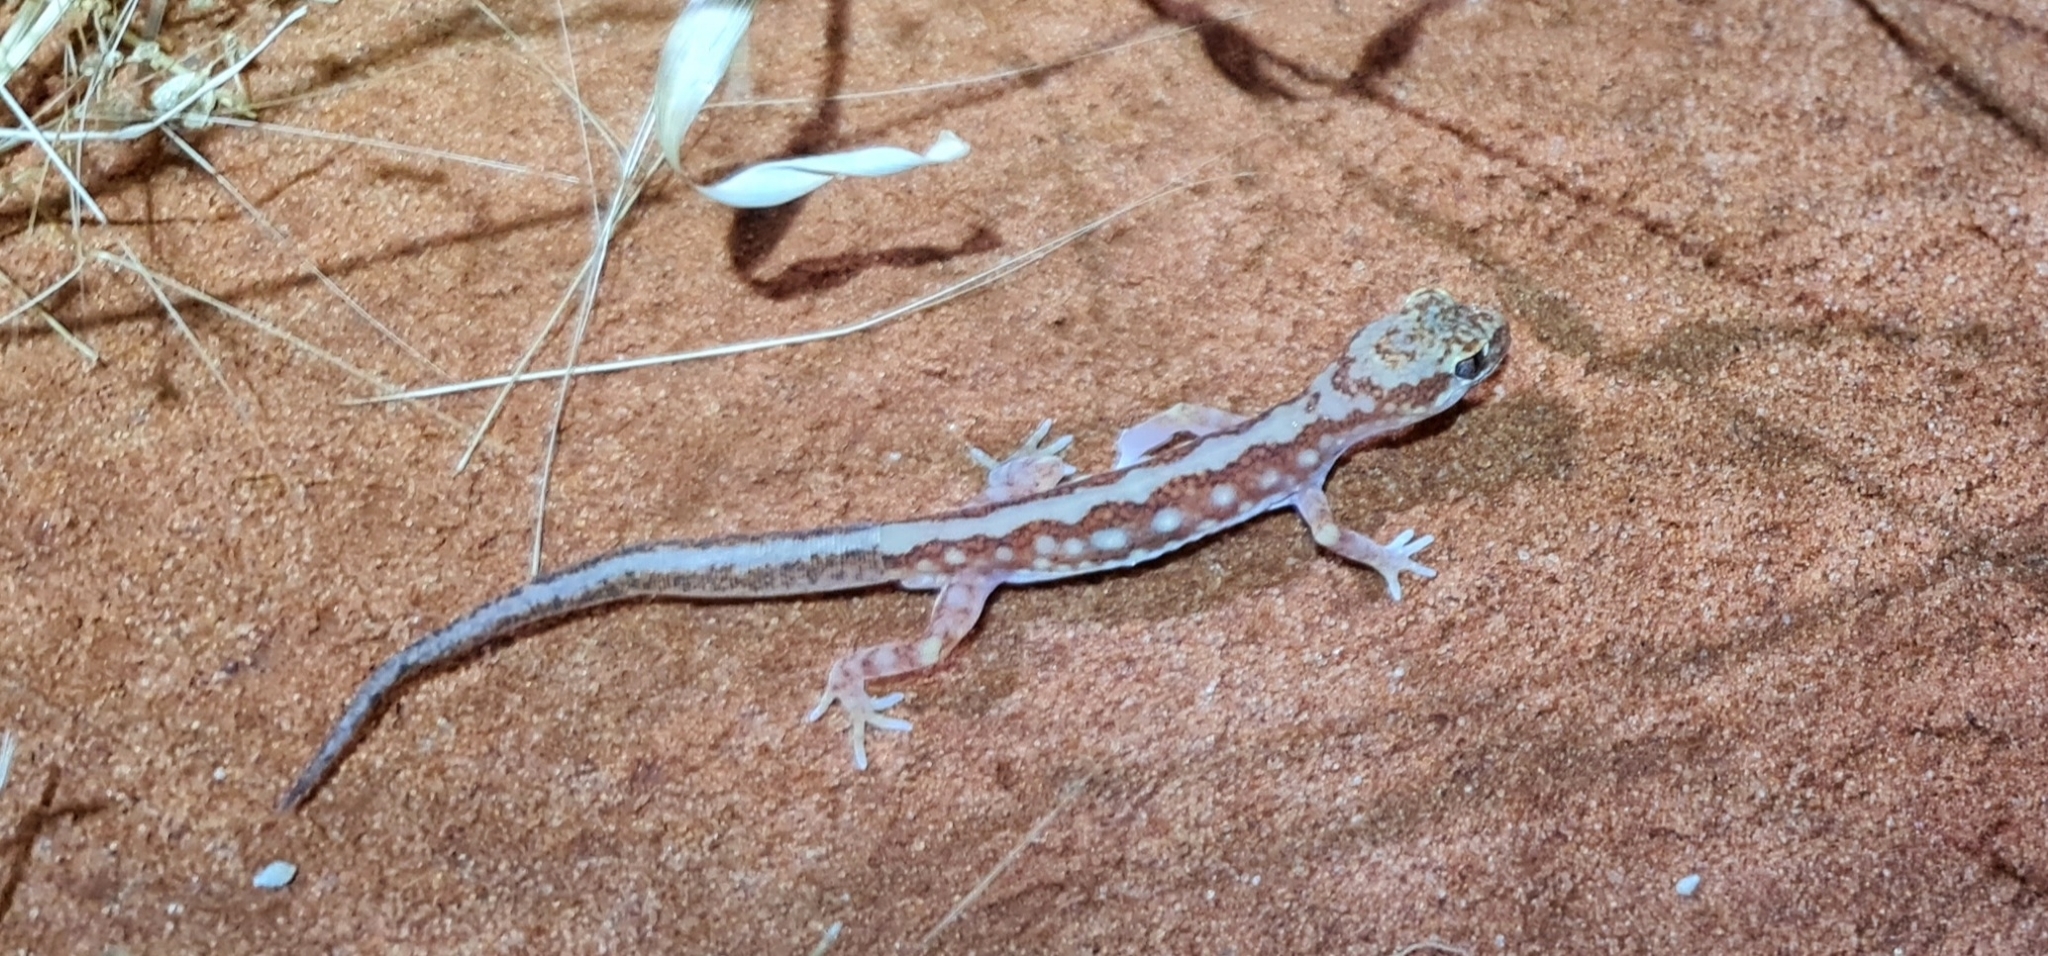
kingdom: Animalia
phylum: Chordata
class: Squamata
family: Diplodactylidae
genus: Lucasium
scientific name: Lucasium damaeum
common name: Beaded gecko
